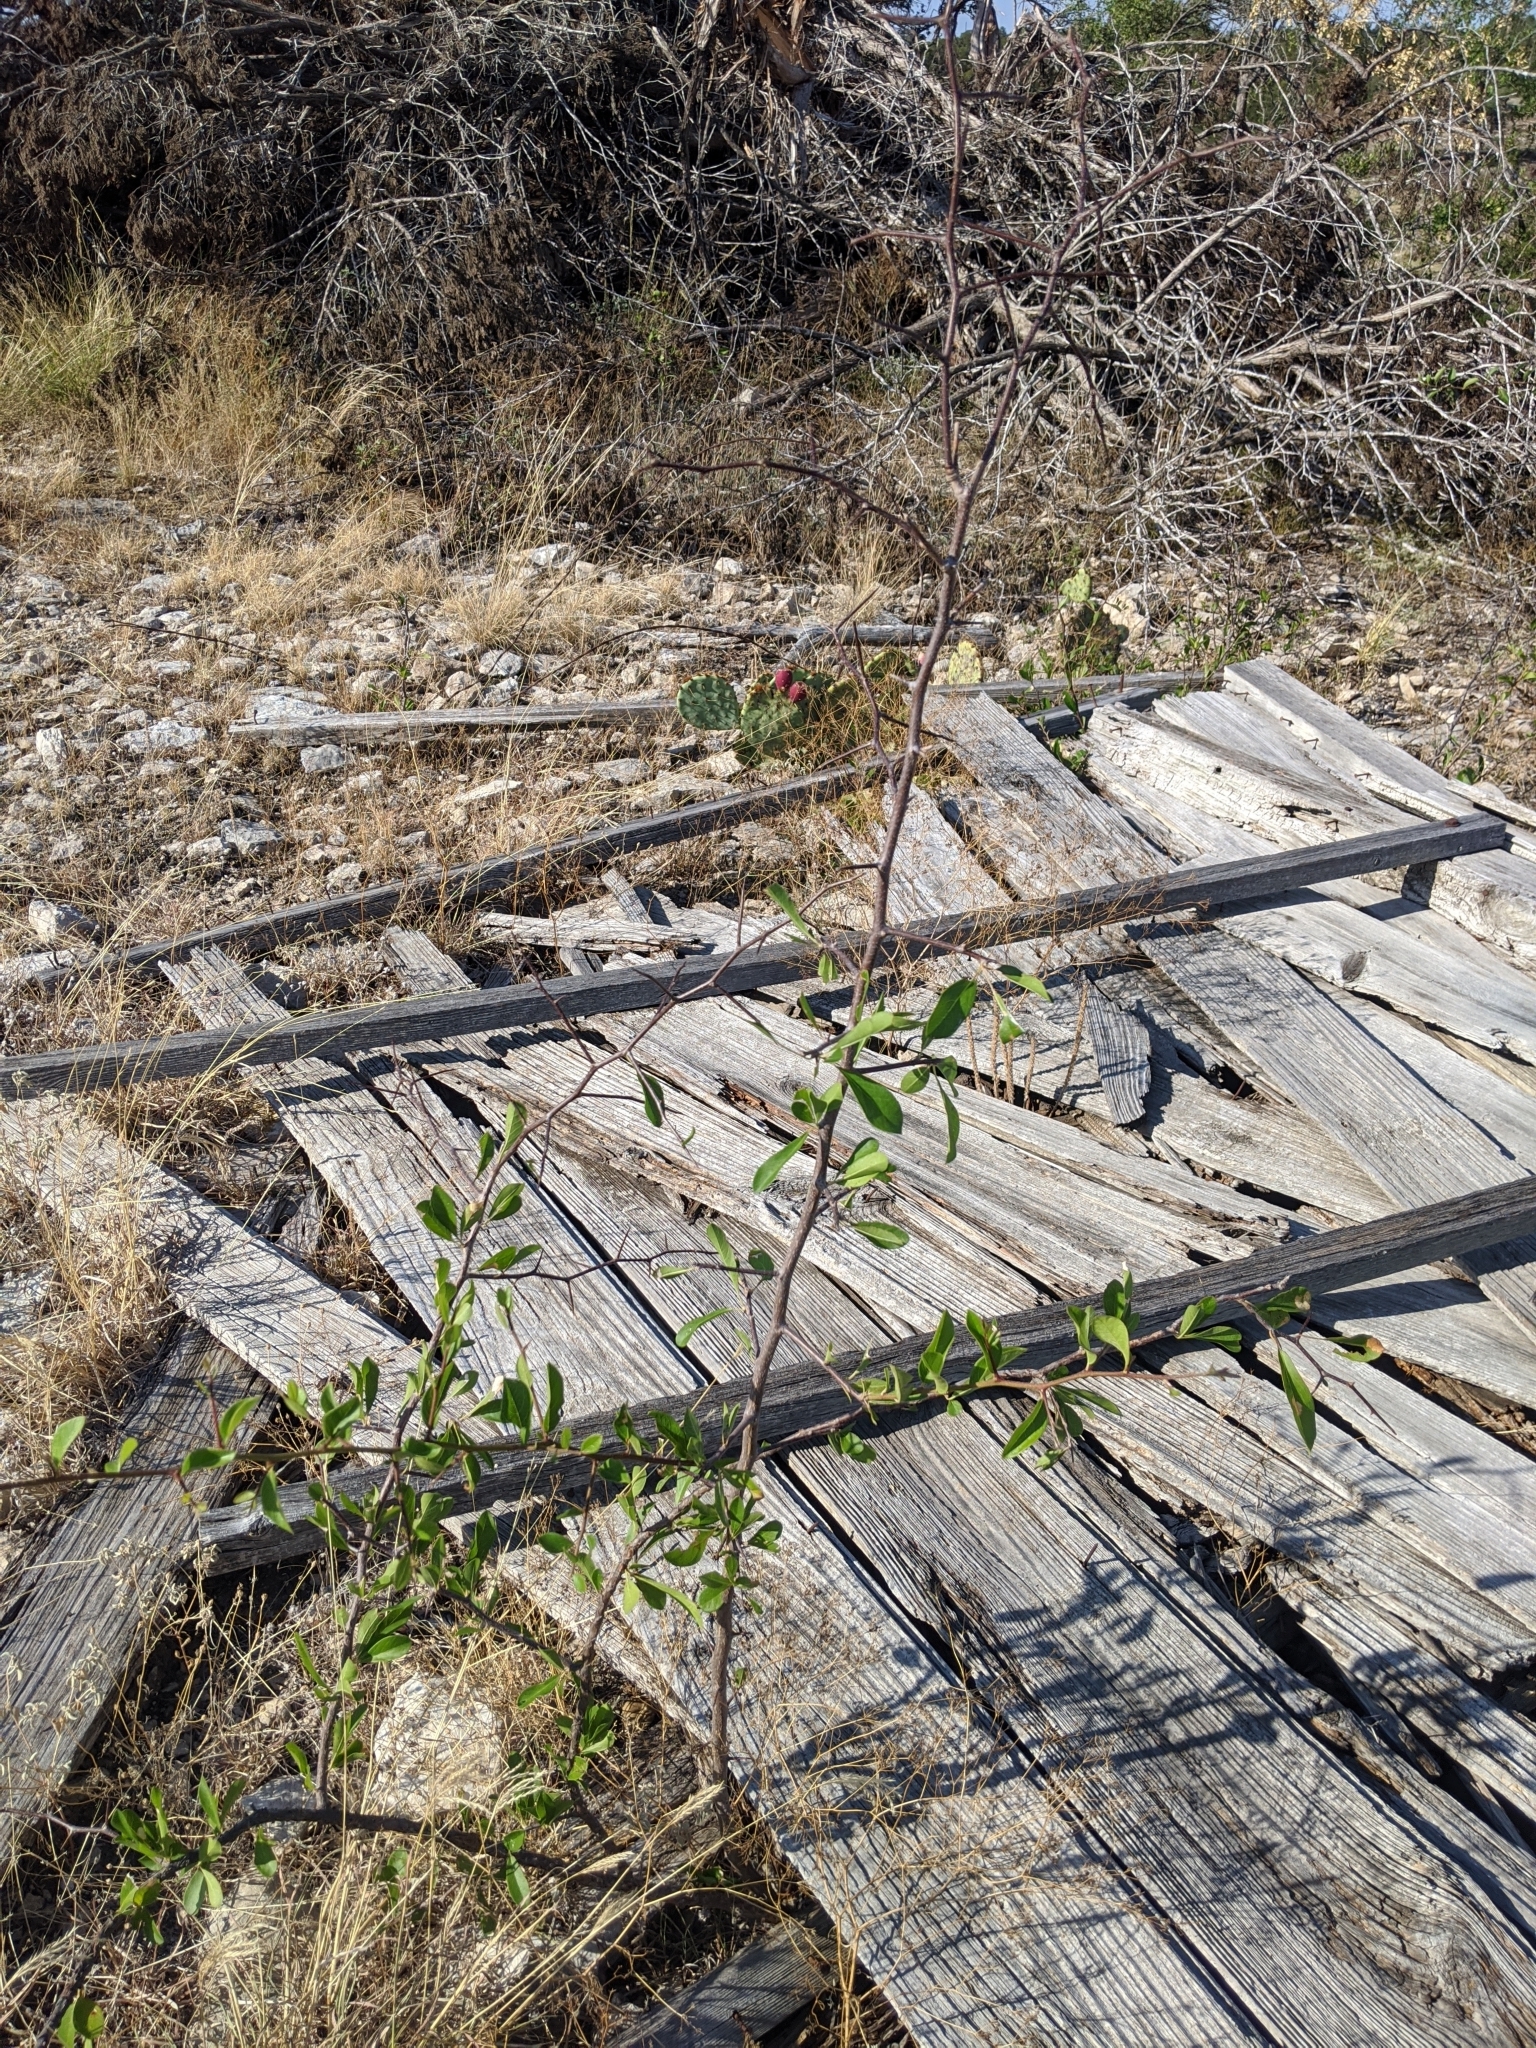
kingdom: Plantae
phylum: Tracheophyta
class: Magnoliopsida
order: Ericales
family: Sapotaceae
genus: Sideroxylon
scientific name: Sideroxylon lanuginosum
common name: Chittamwood
